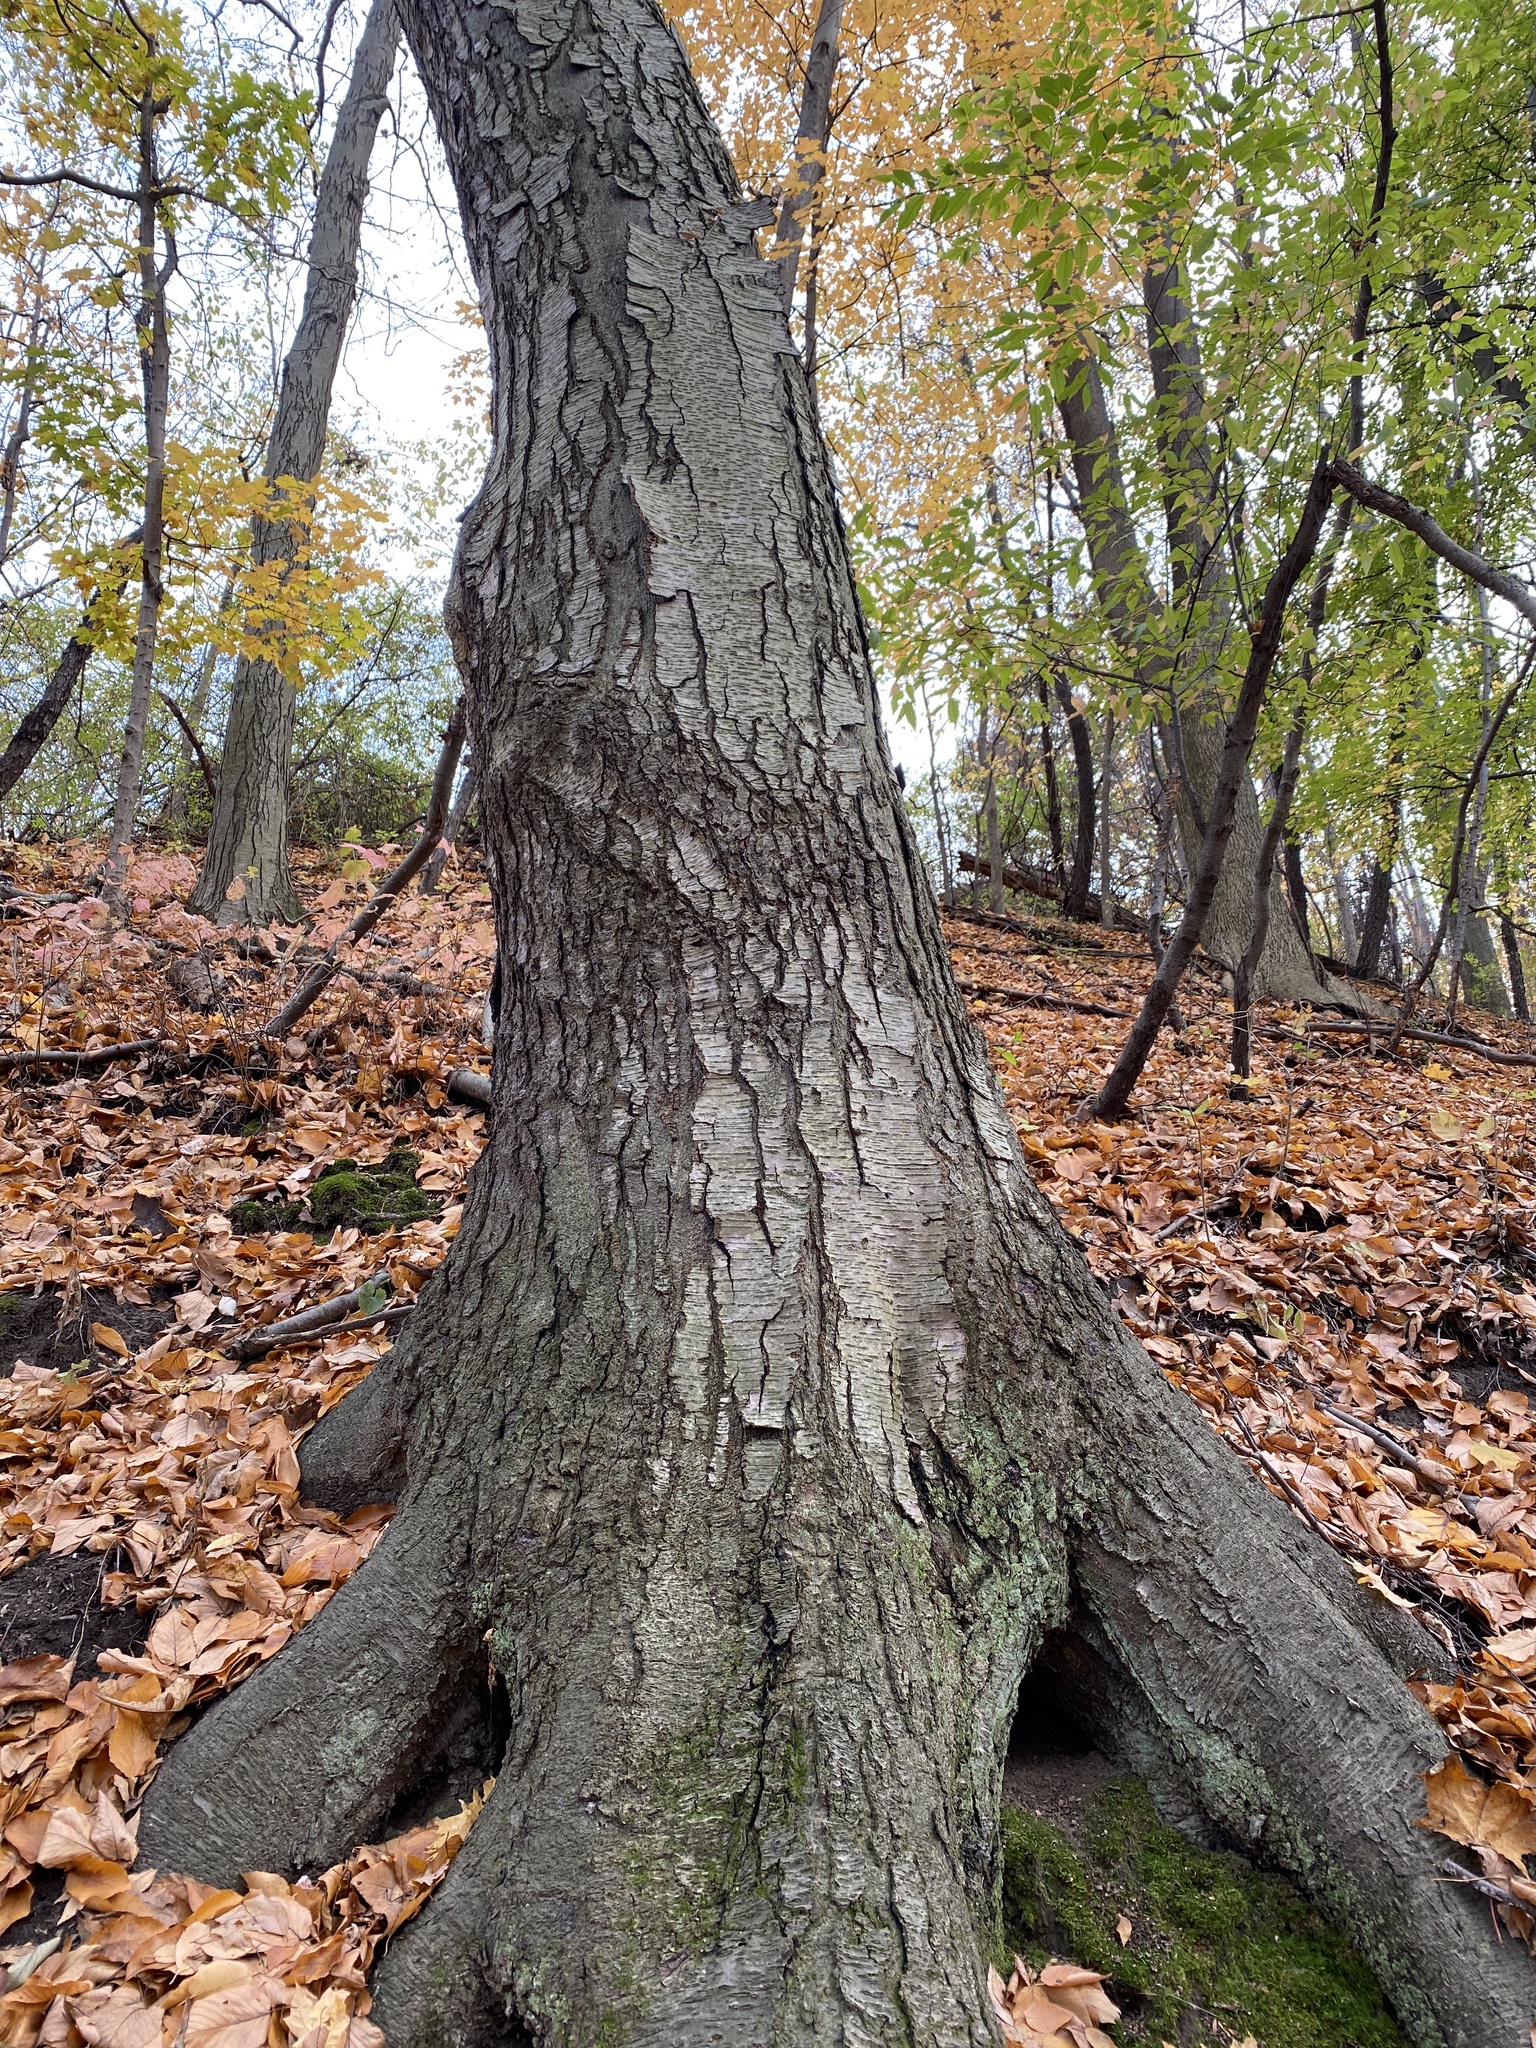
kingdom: Plantae
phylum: Tracheophyta
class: Magnoliopsida
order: Fagales
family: Betulaceae
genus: Betula
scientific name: Betula lenta
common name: Black birch
